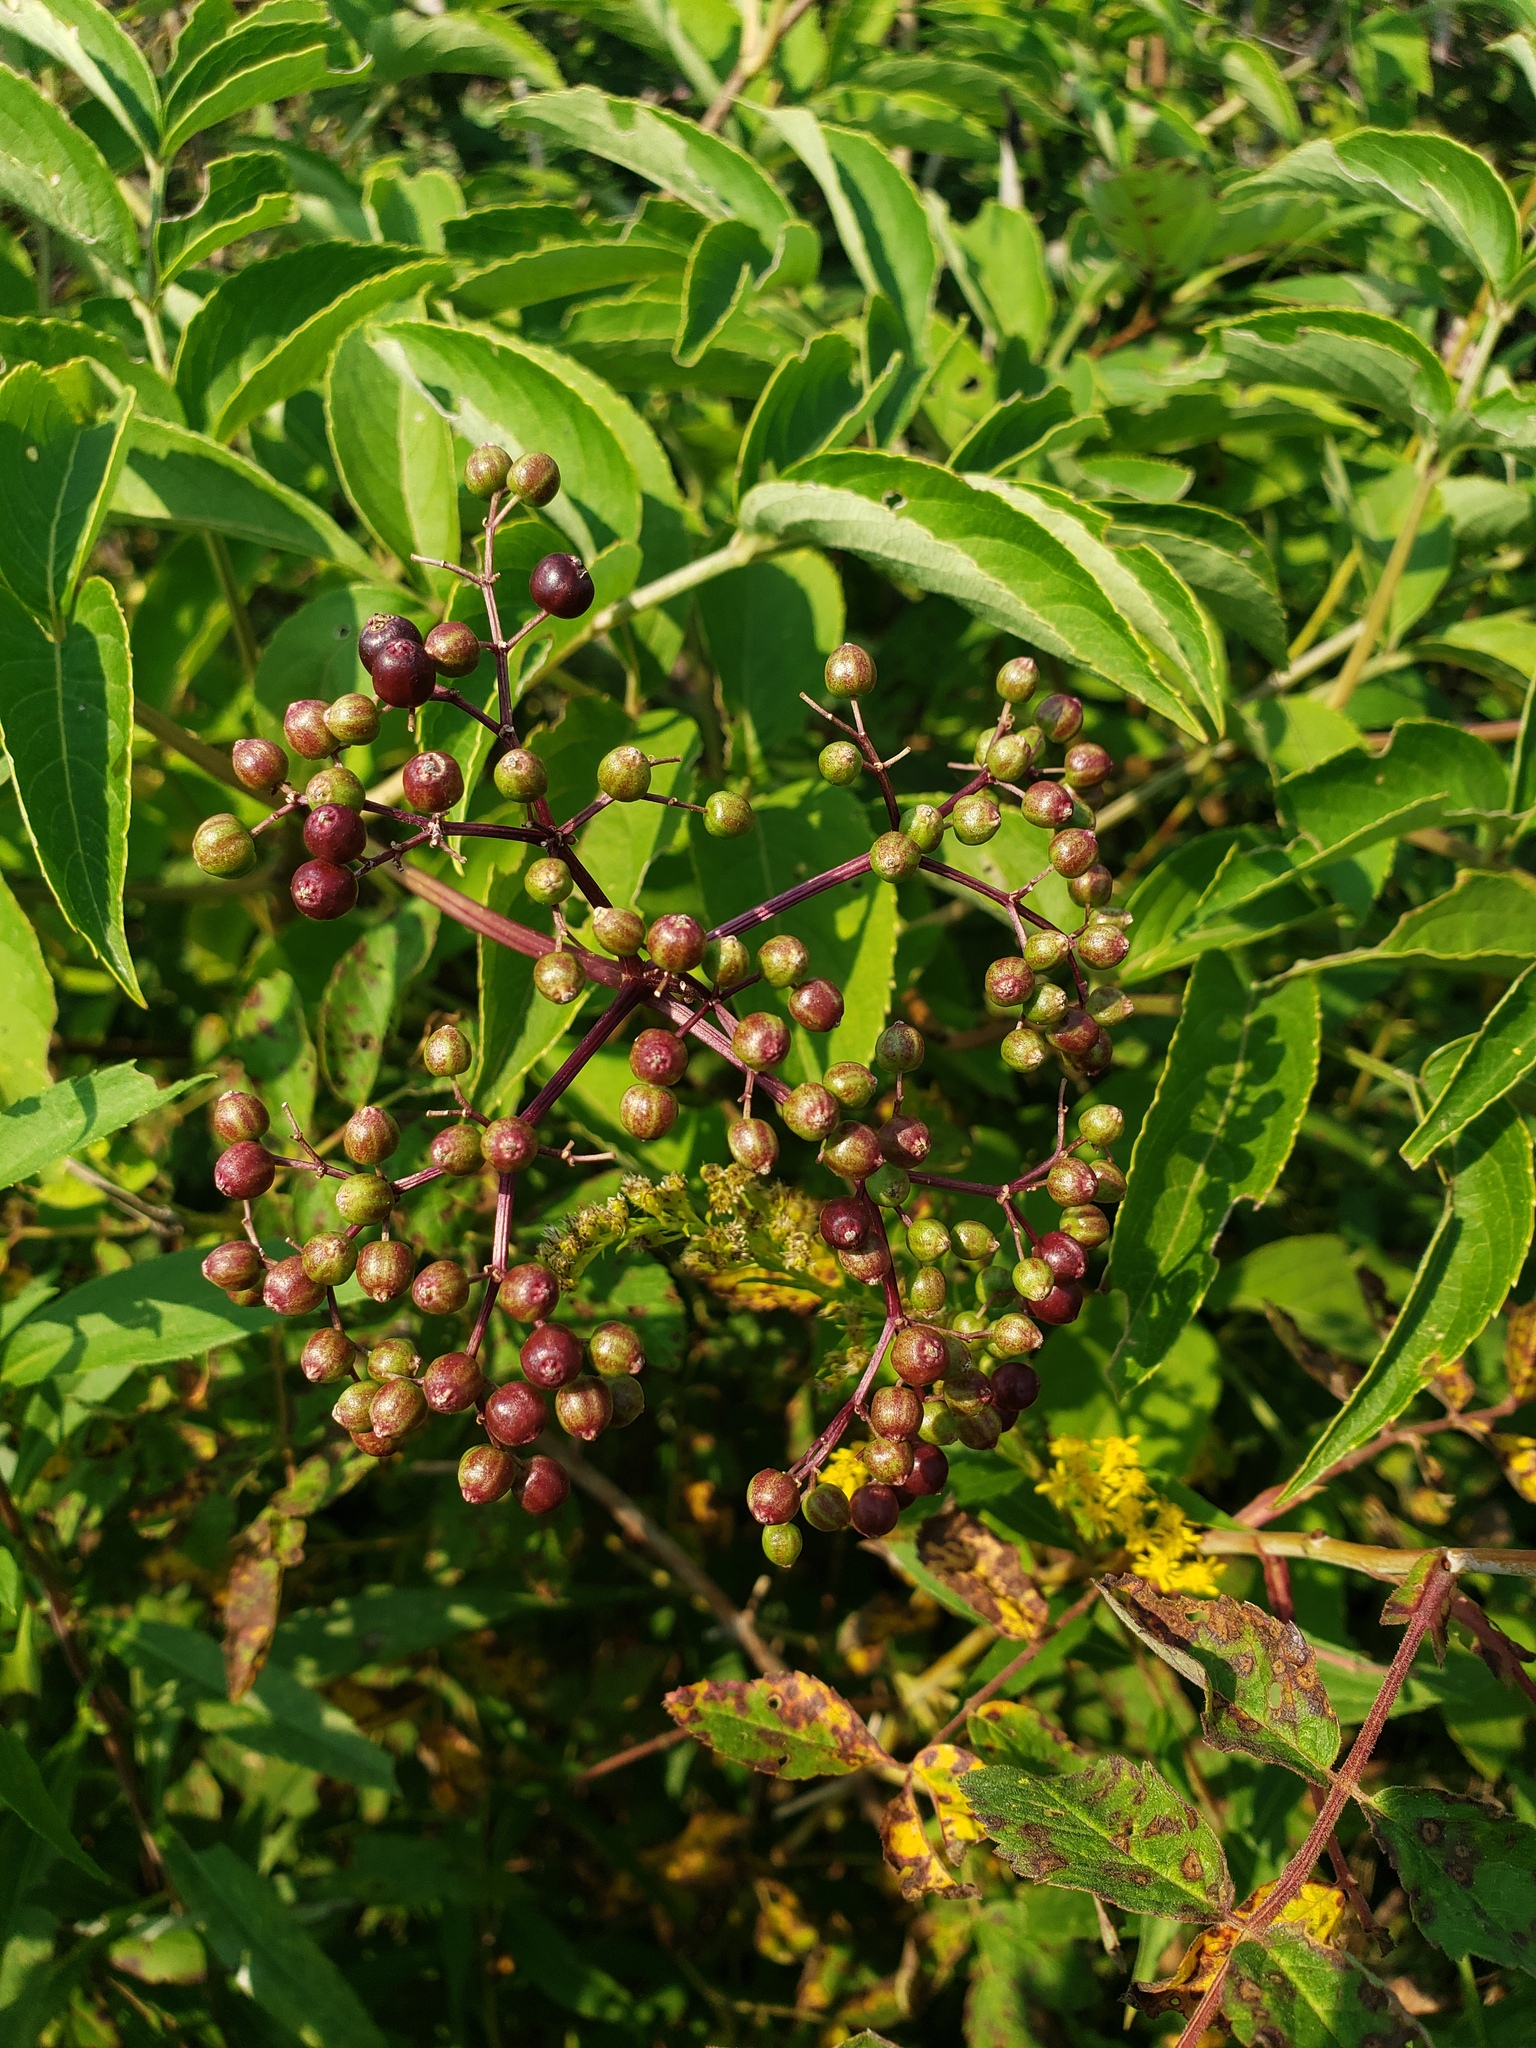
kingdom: Plantae
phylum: Tracheophyta
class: Magnoliopsida
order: Dipsacales
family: Viburnaceae
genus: Sambucus
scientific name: Sambucus canadensis
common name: American elder
